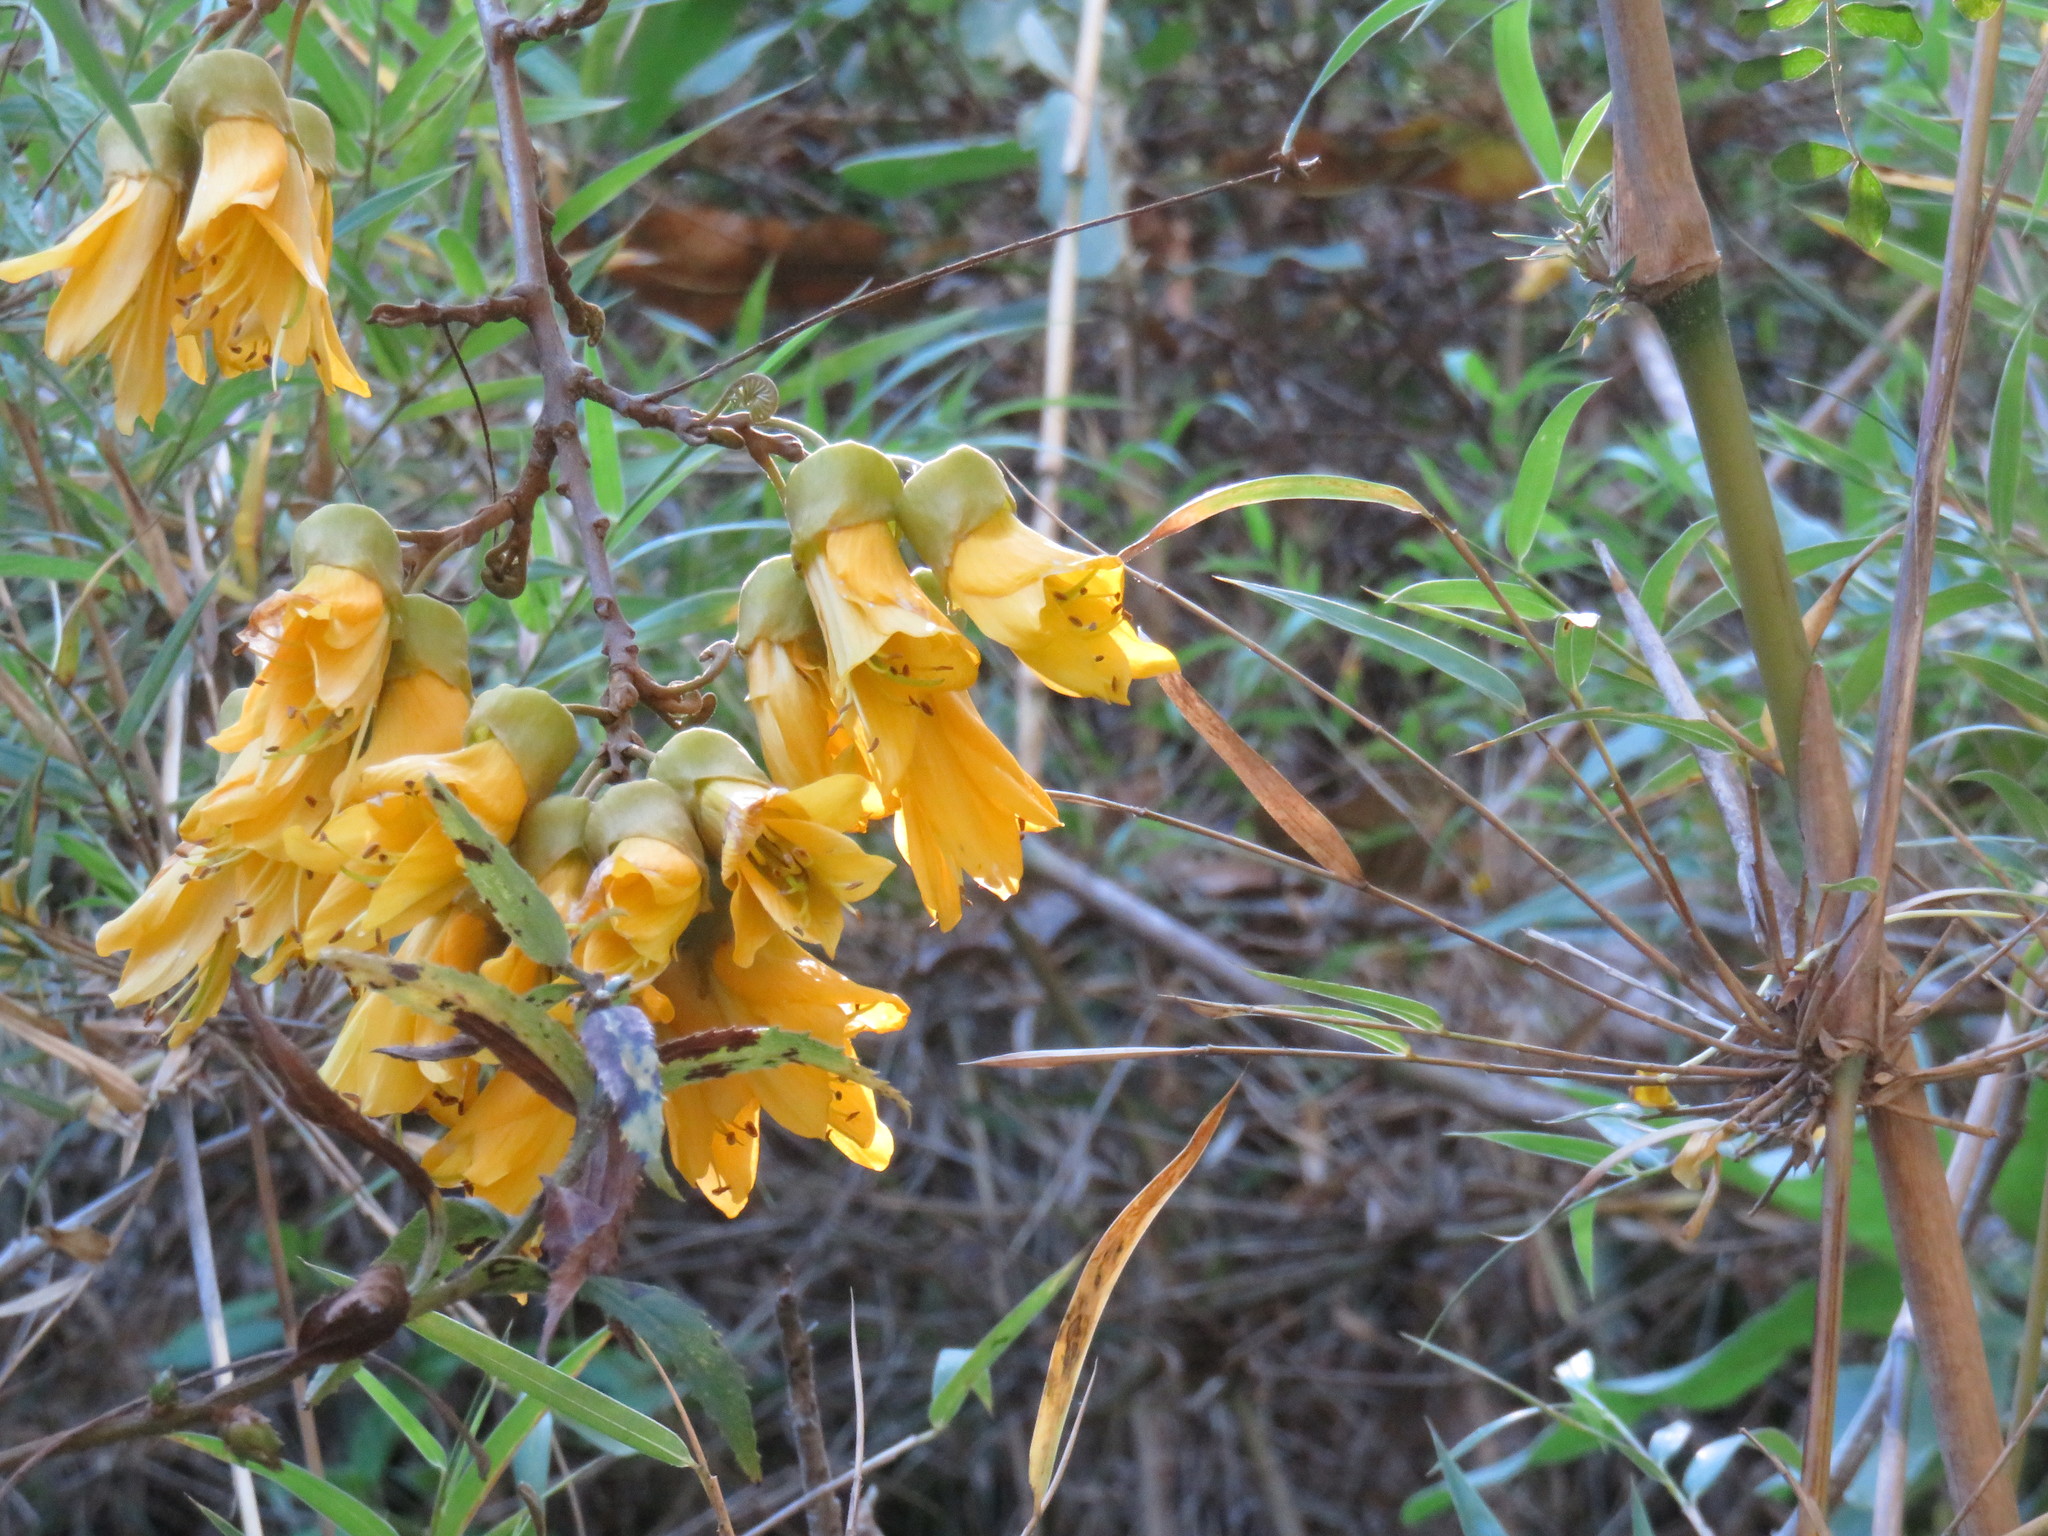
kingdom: Plantae
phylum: Tracheophyta
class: Magnoliopsida
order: Fabales
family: Fabaceae
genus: Sophora
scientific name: Sophora cassioides
